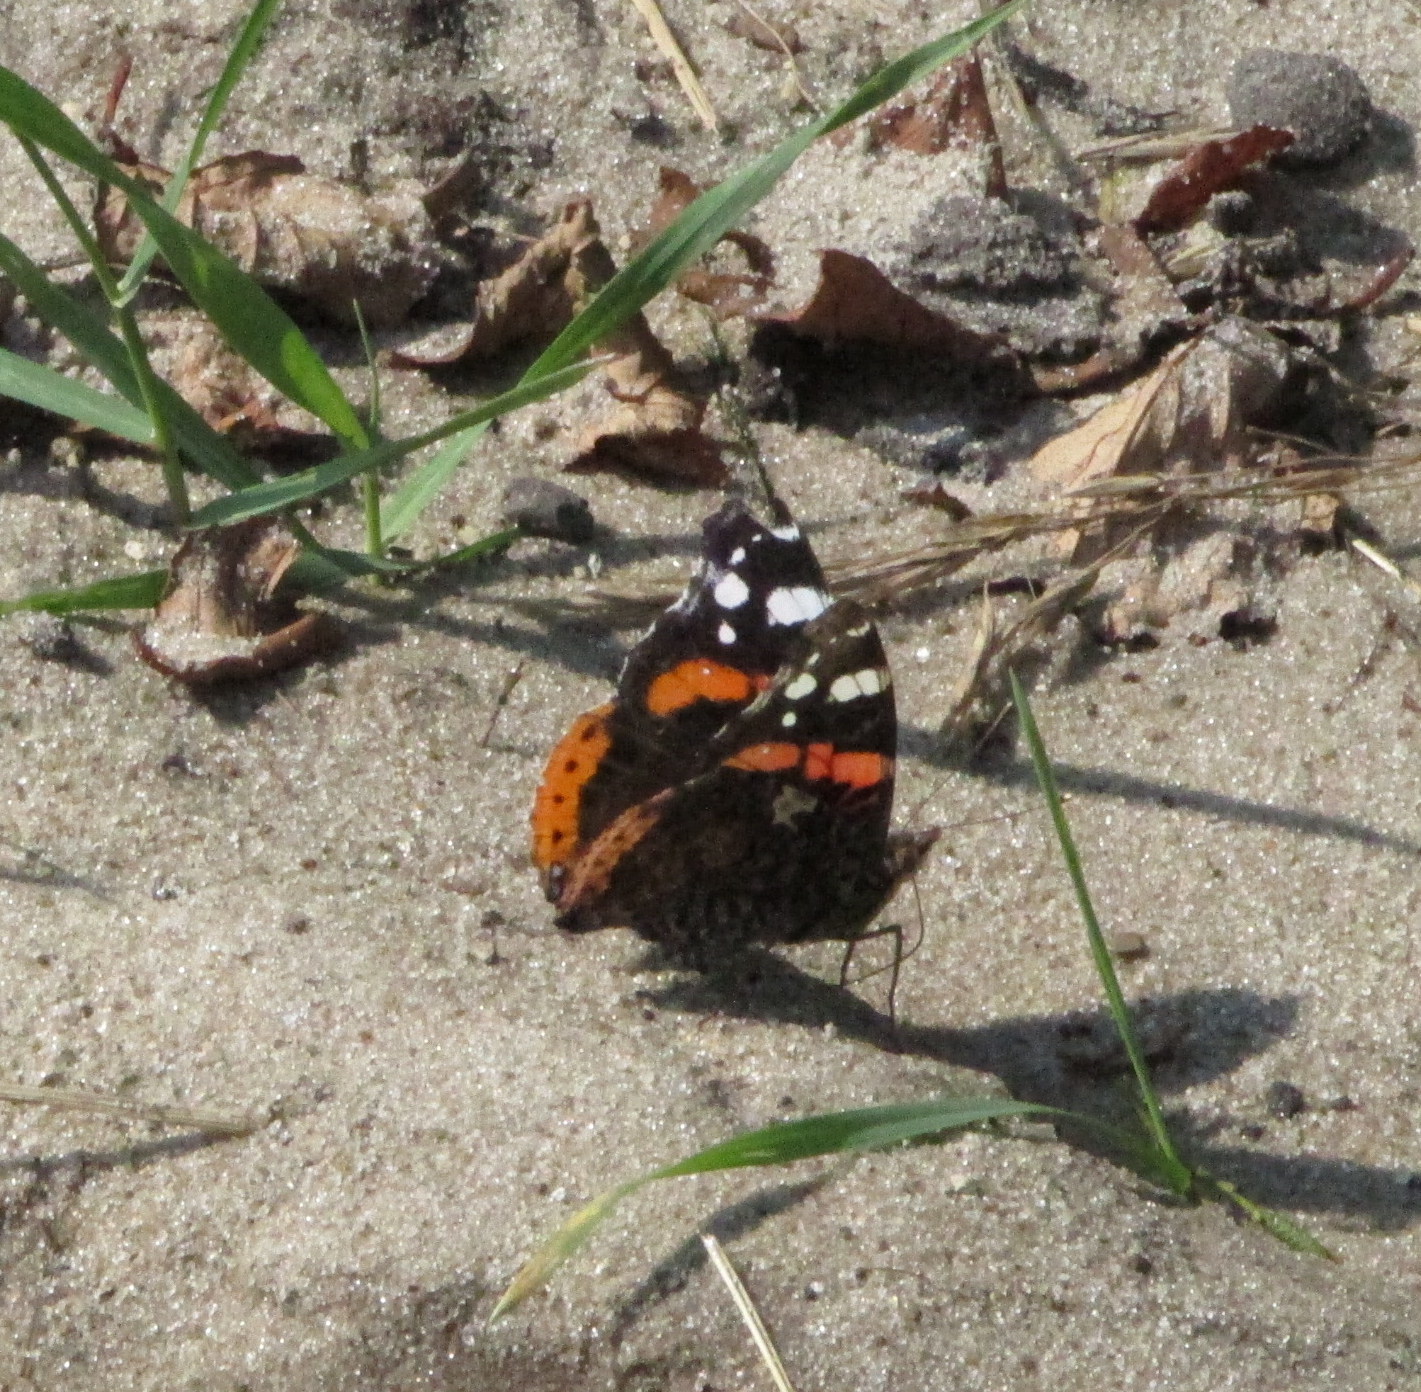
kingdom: Animalia
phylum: Arthropoda
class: Insecta
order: Lepidoptera
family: Nymphalidae
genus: Vanessa
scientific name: Vanessa atalanta
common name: Red admiral
